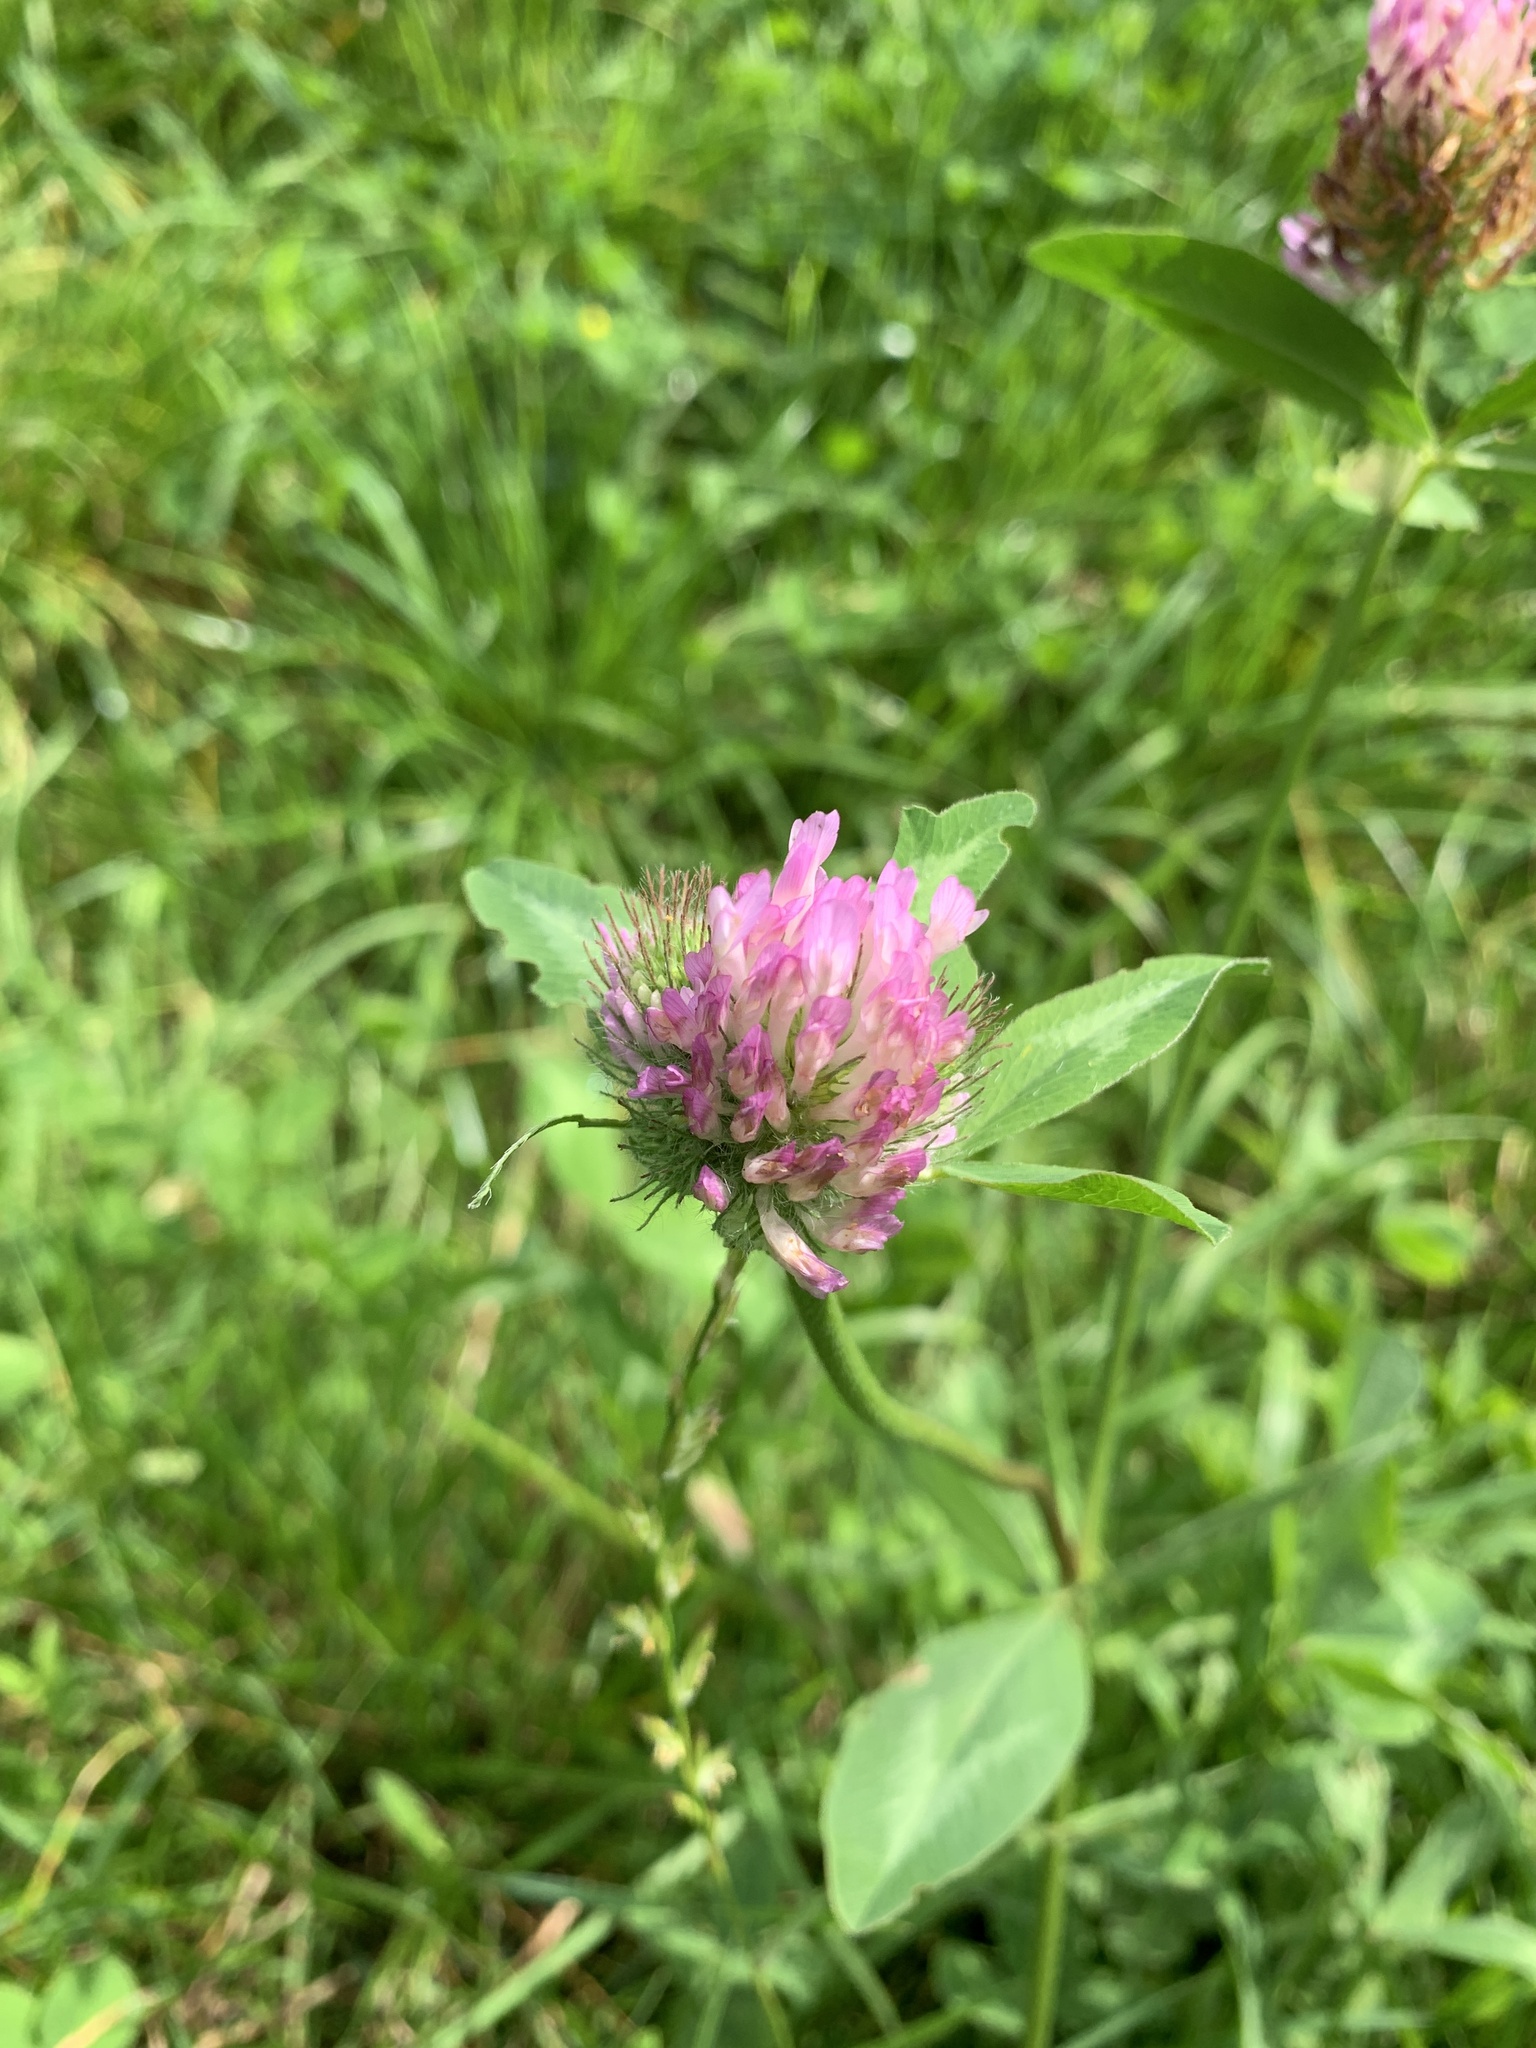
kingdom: Plantae
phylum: Tracheophyta
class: Magnoliopsida
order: Fabales
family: Fabaceae
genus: Trifolium
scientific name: Trifolium pratense
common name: Red clover
